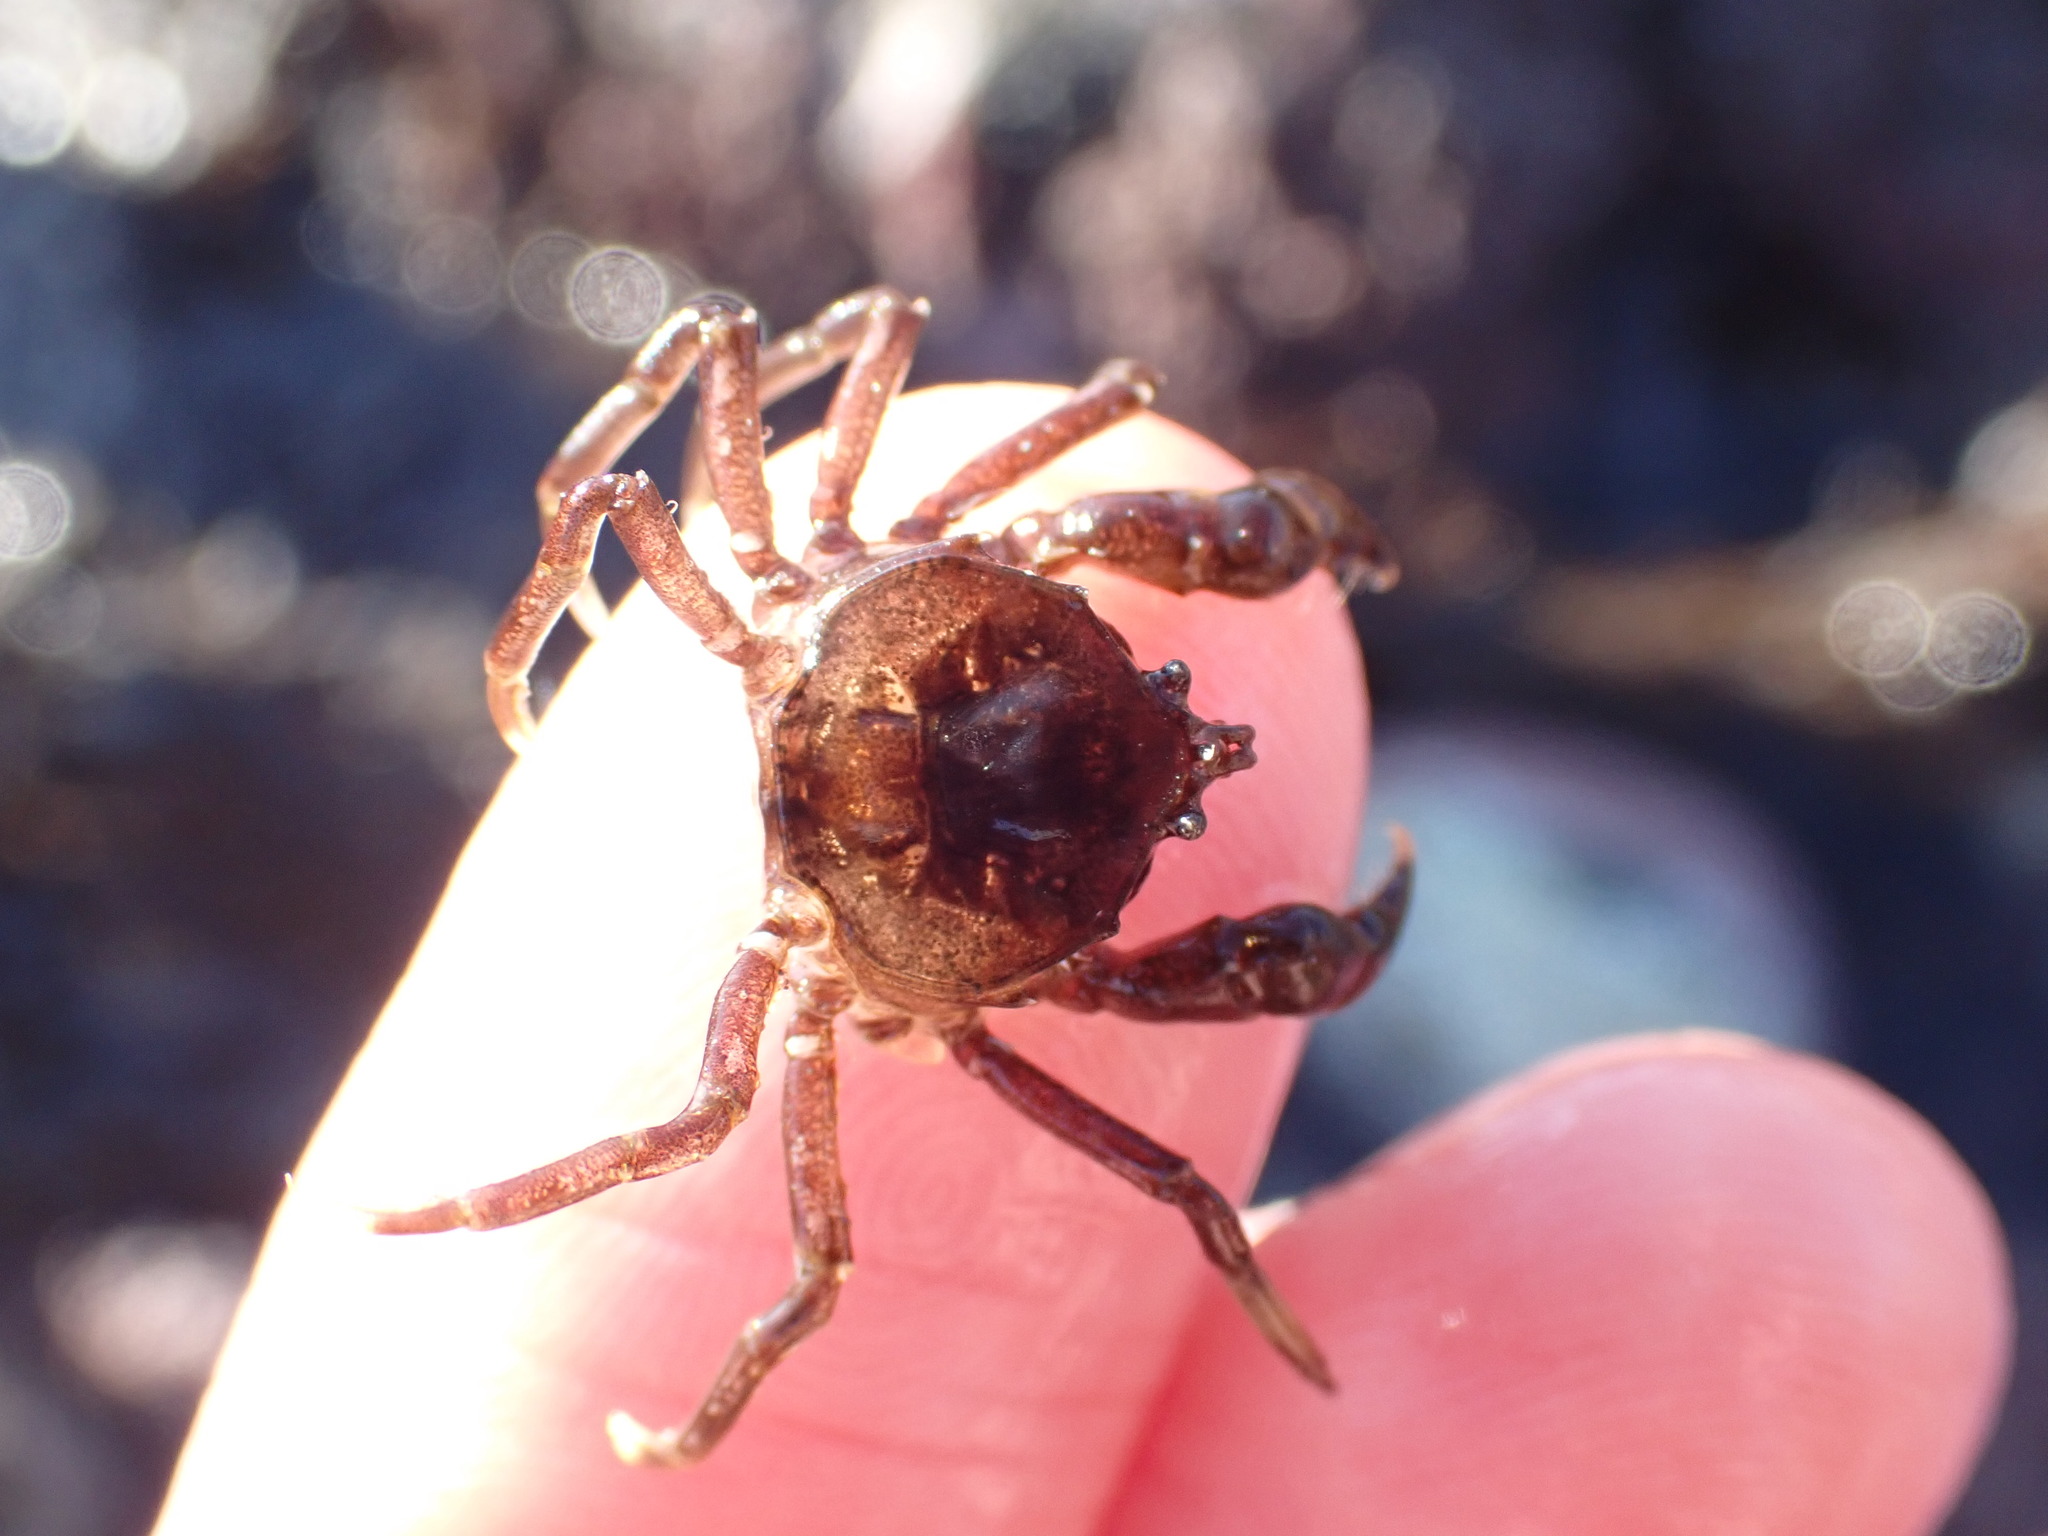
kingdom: Animalia
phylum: Arthropoda
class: Malacostraca
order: Decapoda
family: Hymenosomatidae
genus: Halicarcinus
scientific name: Halicarcinus cookii
